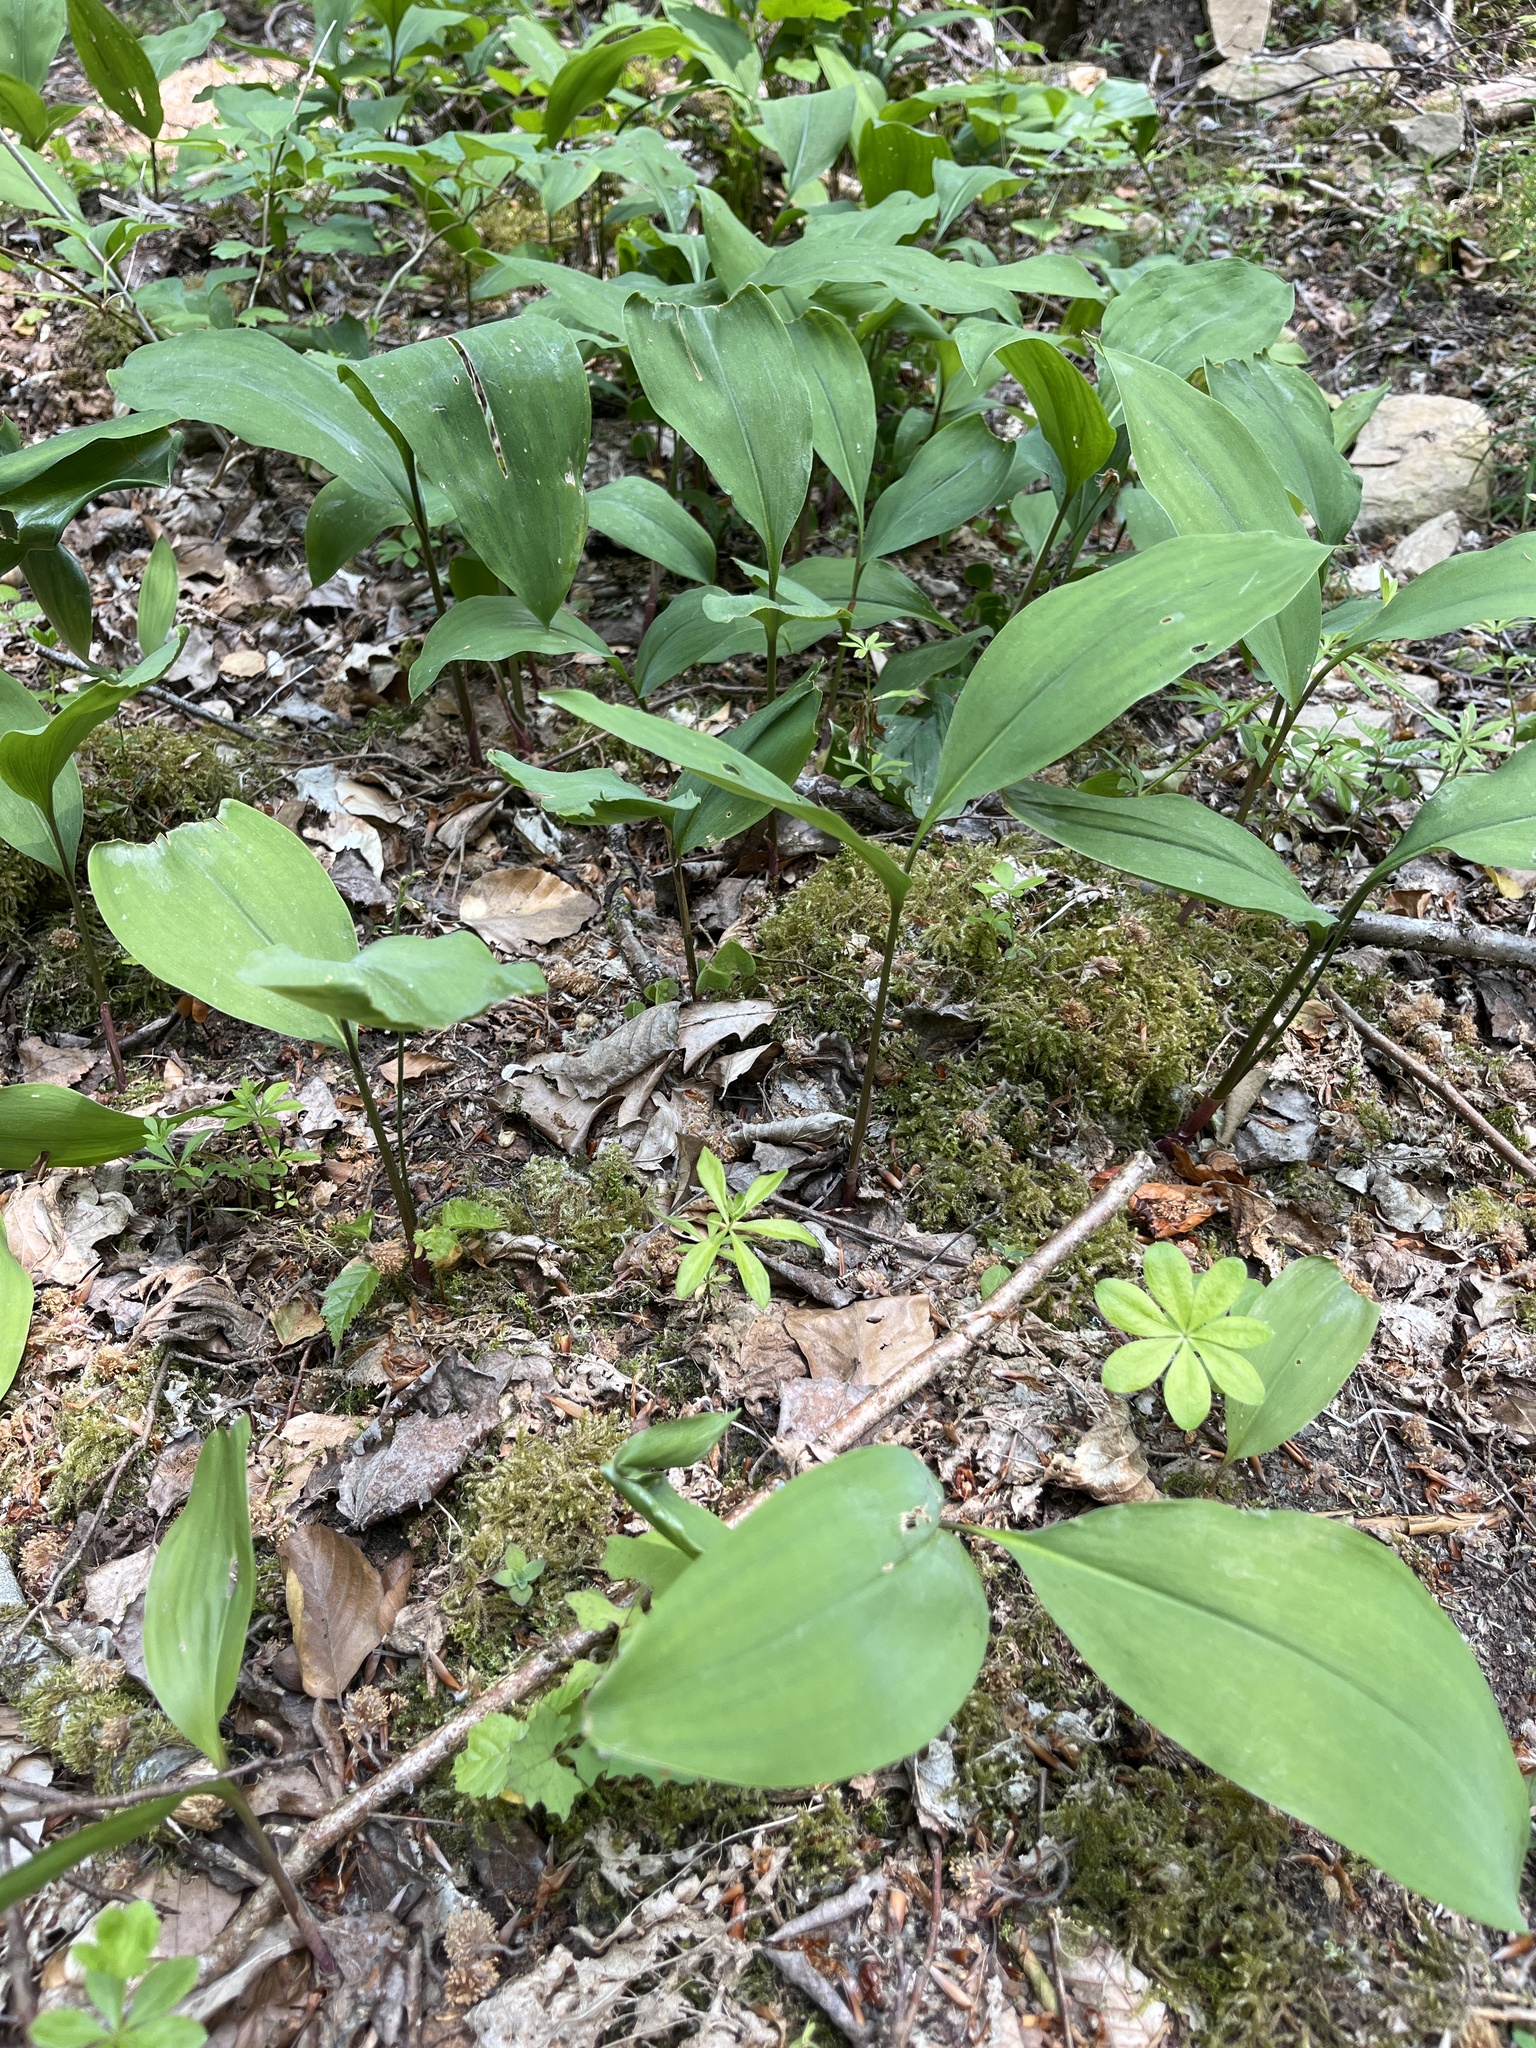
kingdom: Plantae
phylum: Tracheophyta
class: Liliopsida
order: Asparagales
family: Asparagaceae
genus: Convallaria
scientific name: Convallaria majalis
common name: Lily-of-the-valley
